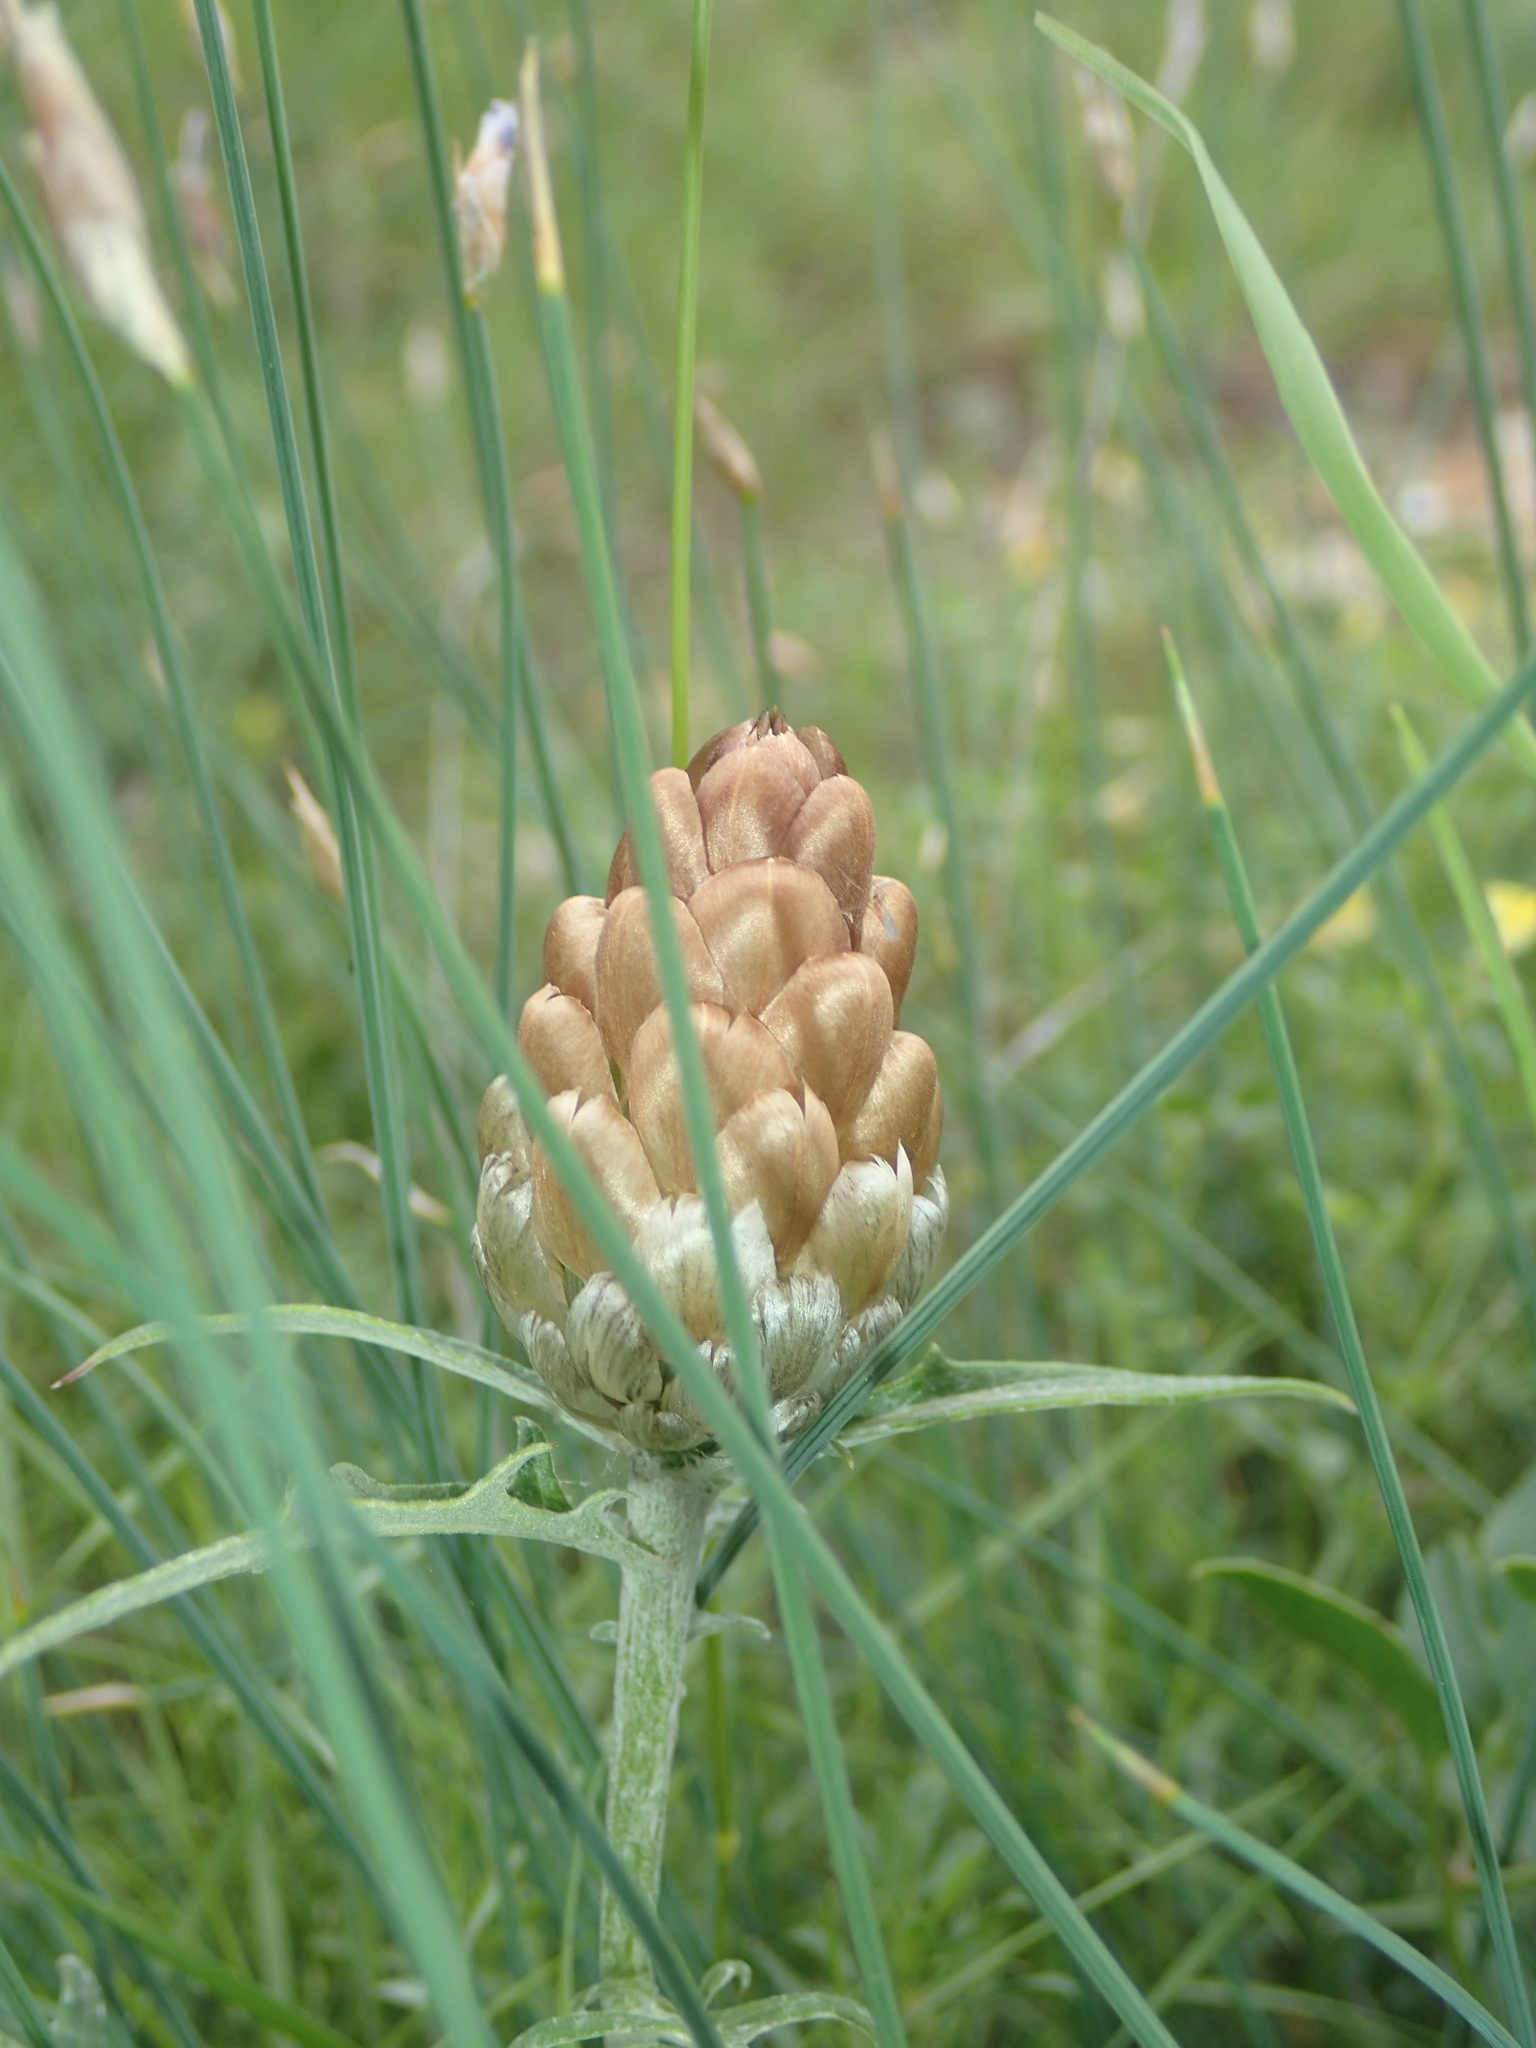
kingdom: Plantae
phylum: Tracheophyta
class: Magnoliopsida
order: Asterales
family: Asteraceae
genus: Leuzea
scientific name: Leuzea conifera
